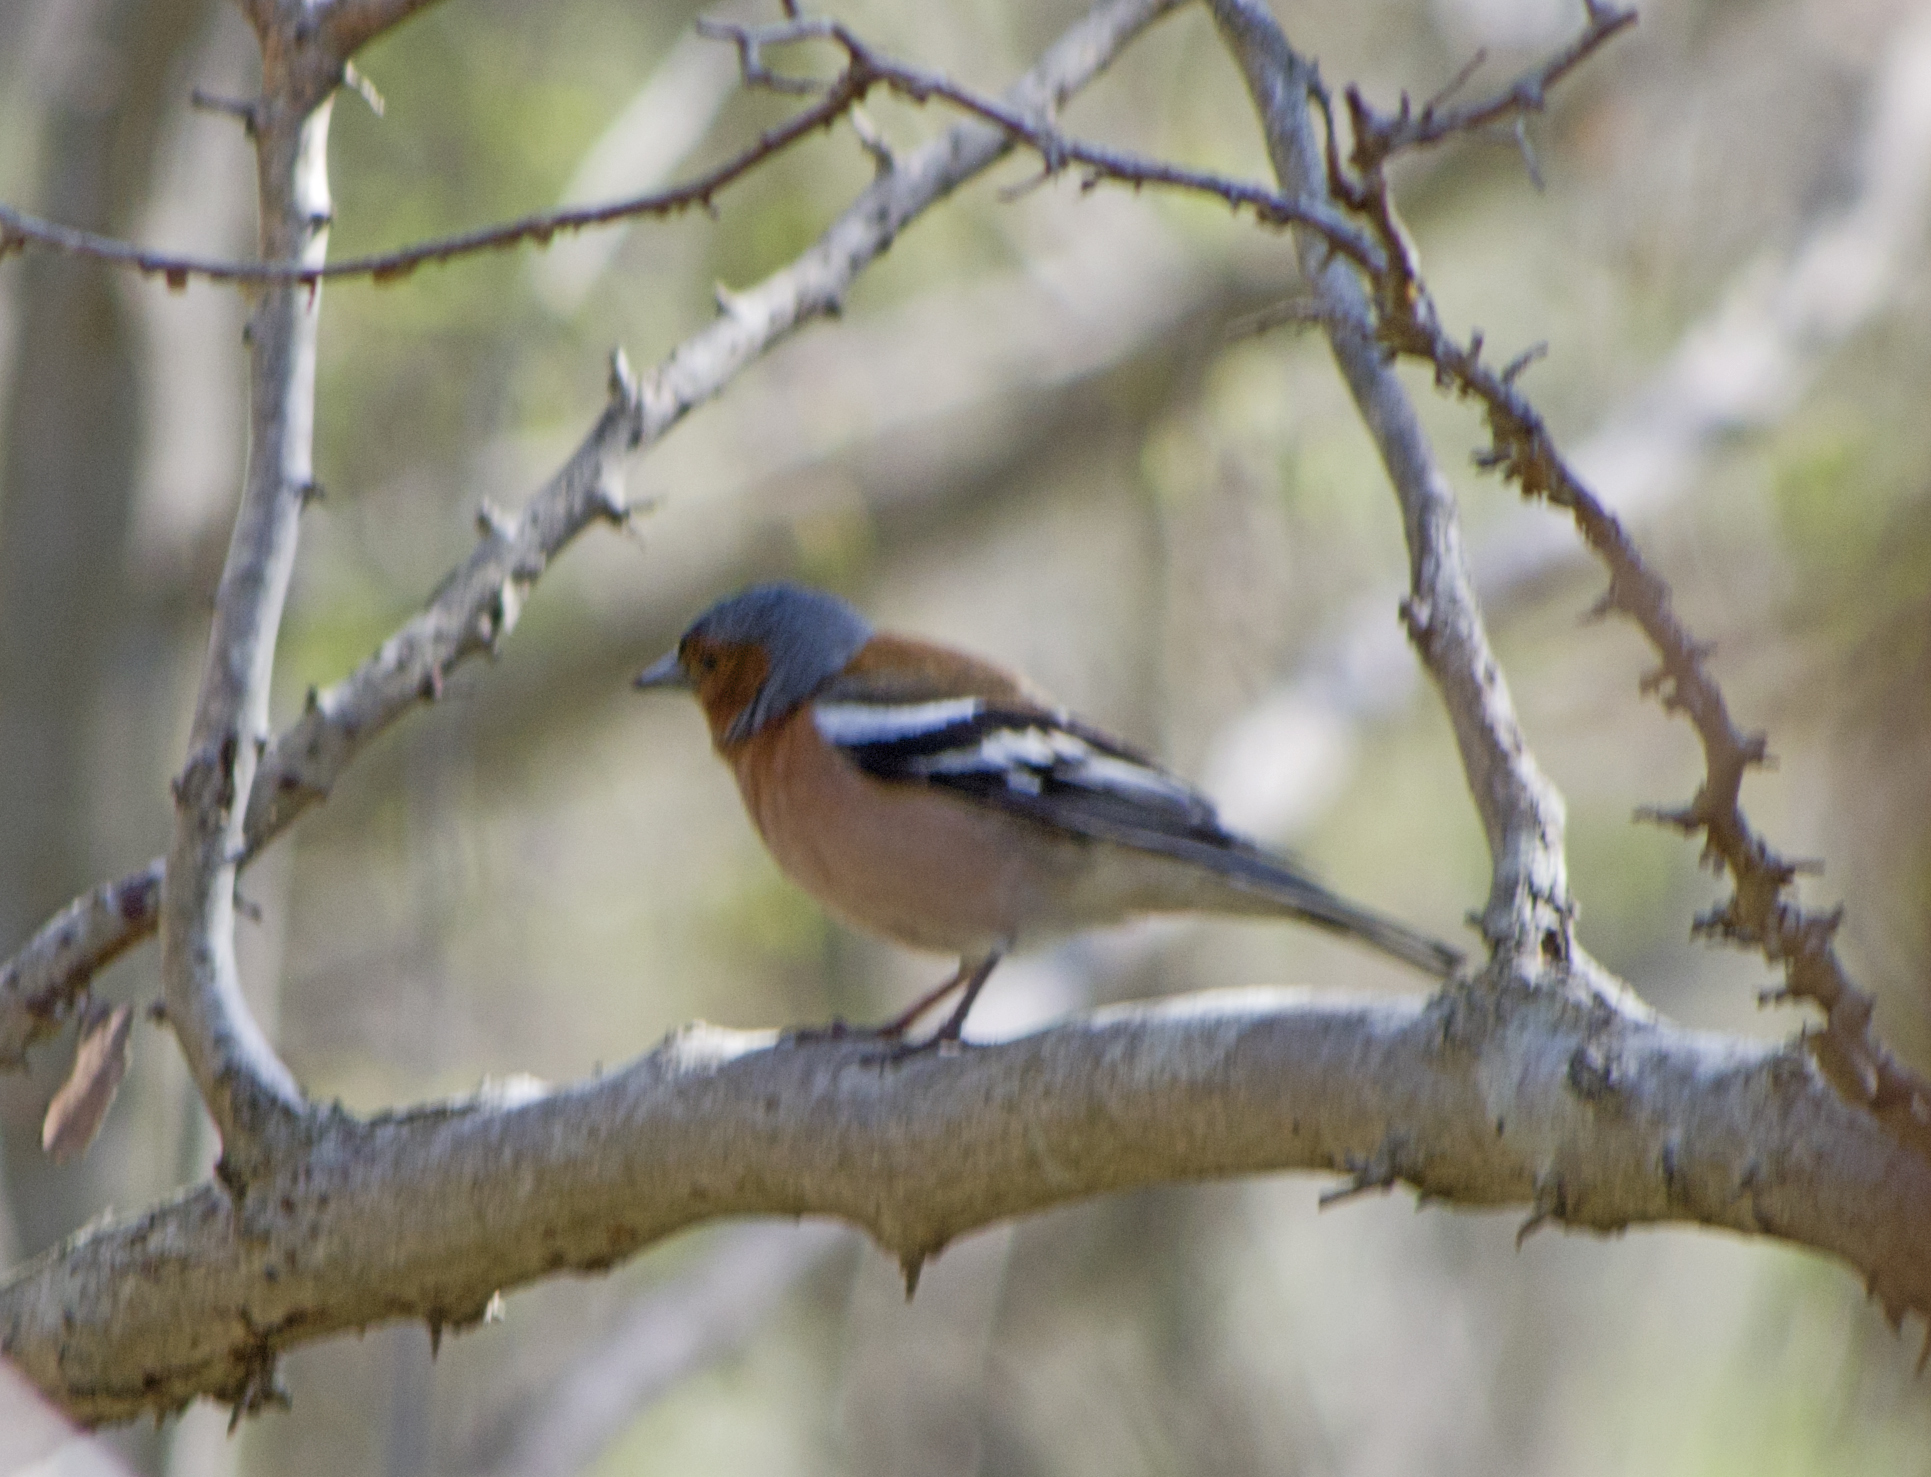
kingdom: Animalia
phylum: Chordata
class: Aves
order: Passeriformes
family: Fringillidae
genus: Fringilla
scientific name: Fringilla coelebs
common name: Common chaffinch
